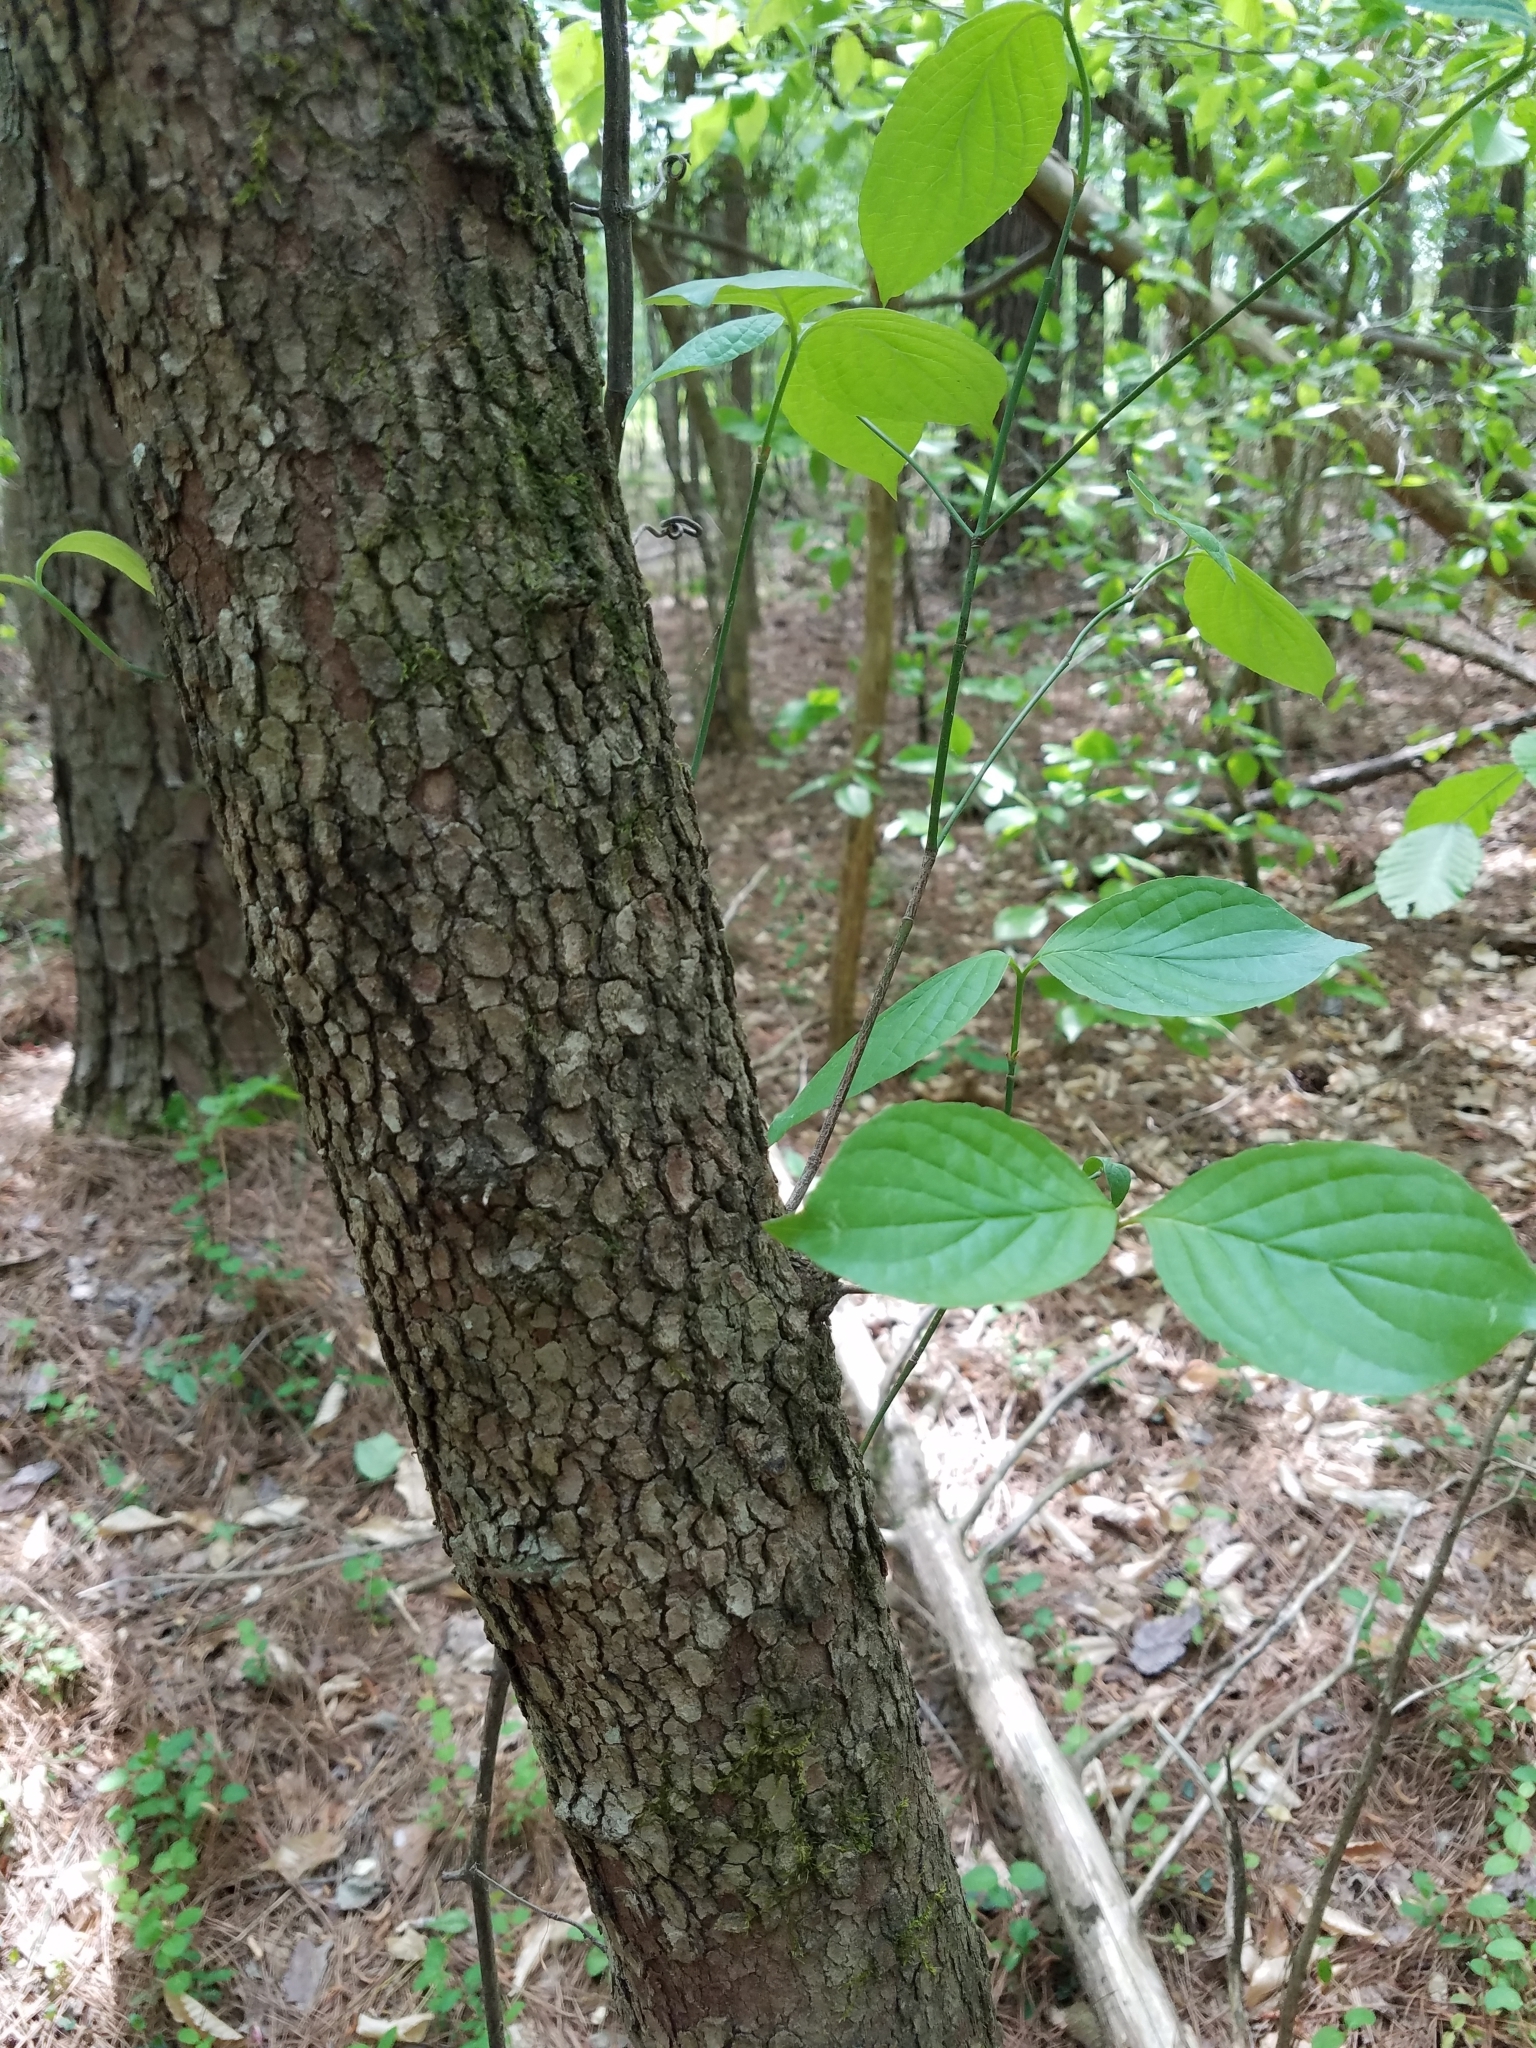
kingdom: Plantae
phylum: Tracheophyta
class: Magnoliopsida
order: Cornales
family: Cornaceae
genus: Cornus
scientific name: Cornus florida
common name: Flowering dogwood
